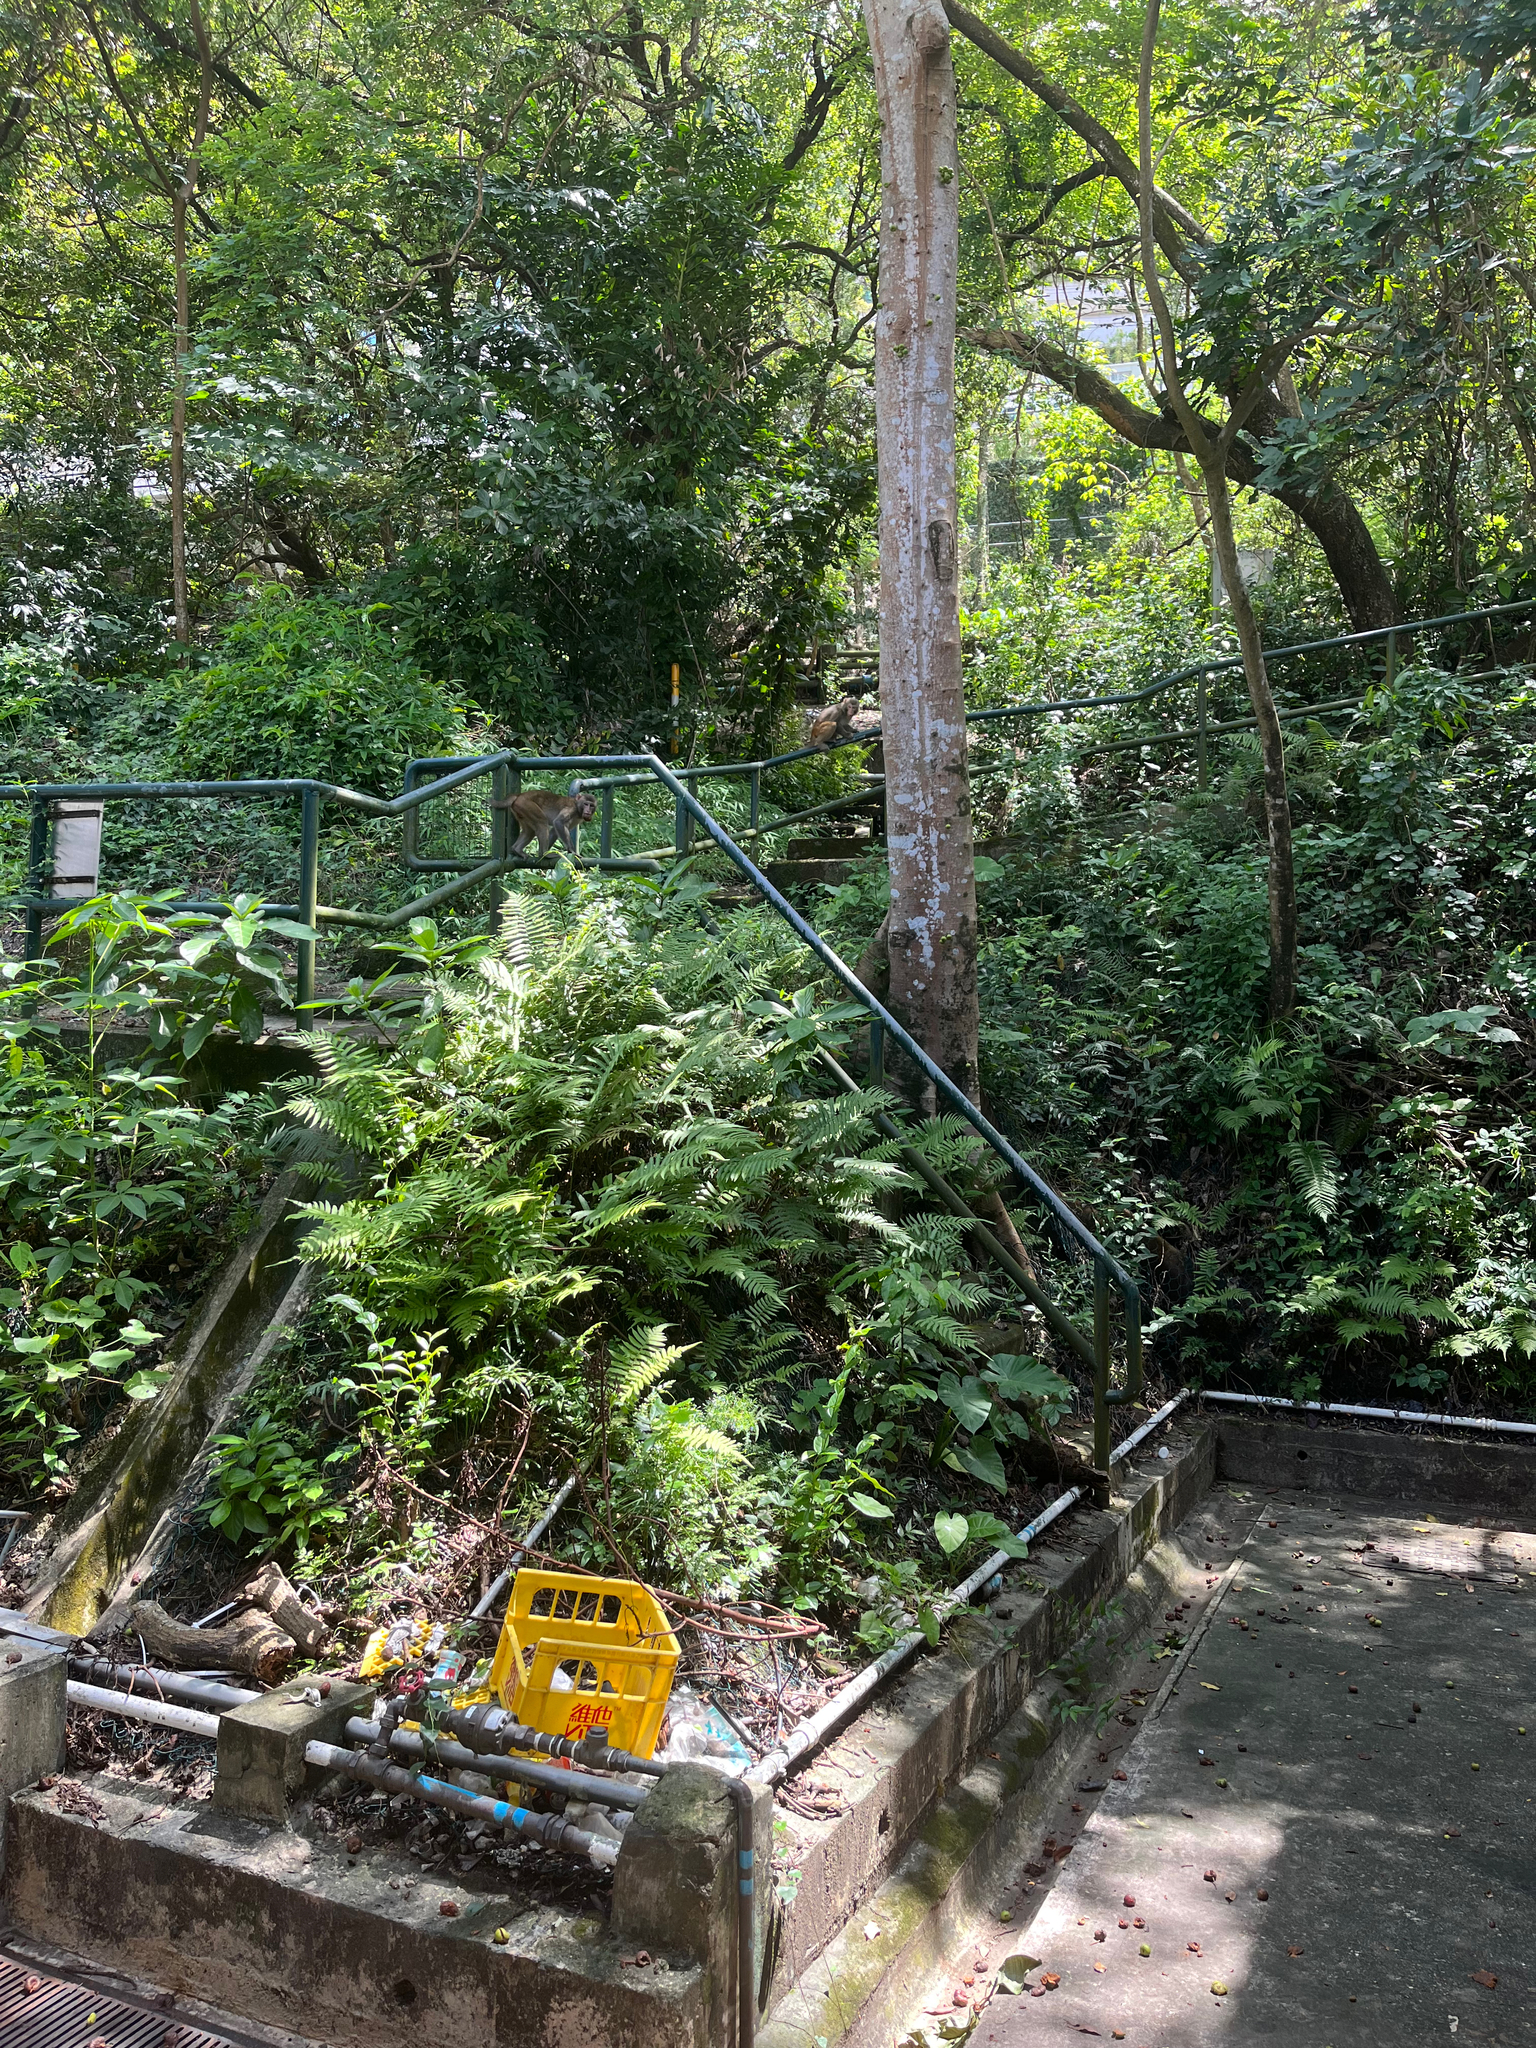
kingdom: Animalia
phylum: Chordata
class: Mammalia
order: Primates
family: Cercopithecidae
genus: Macaca
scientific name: Macaca mulatta
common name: Rhesus monkey
